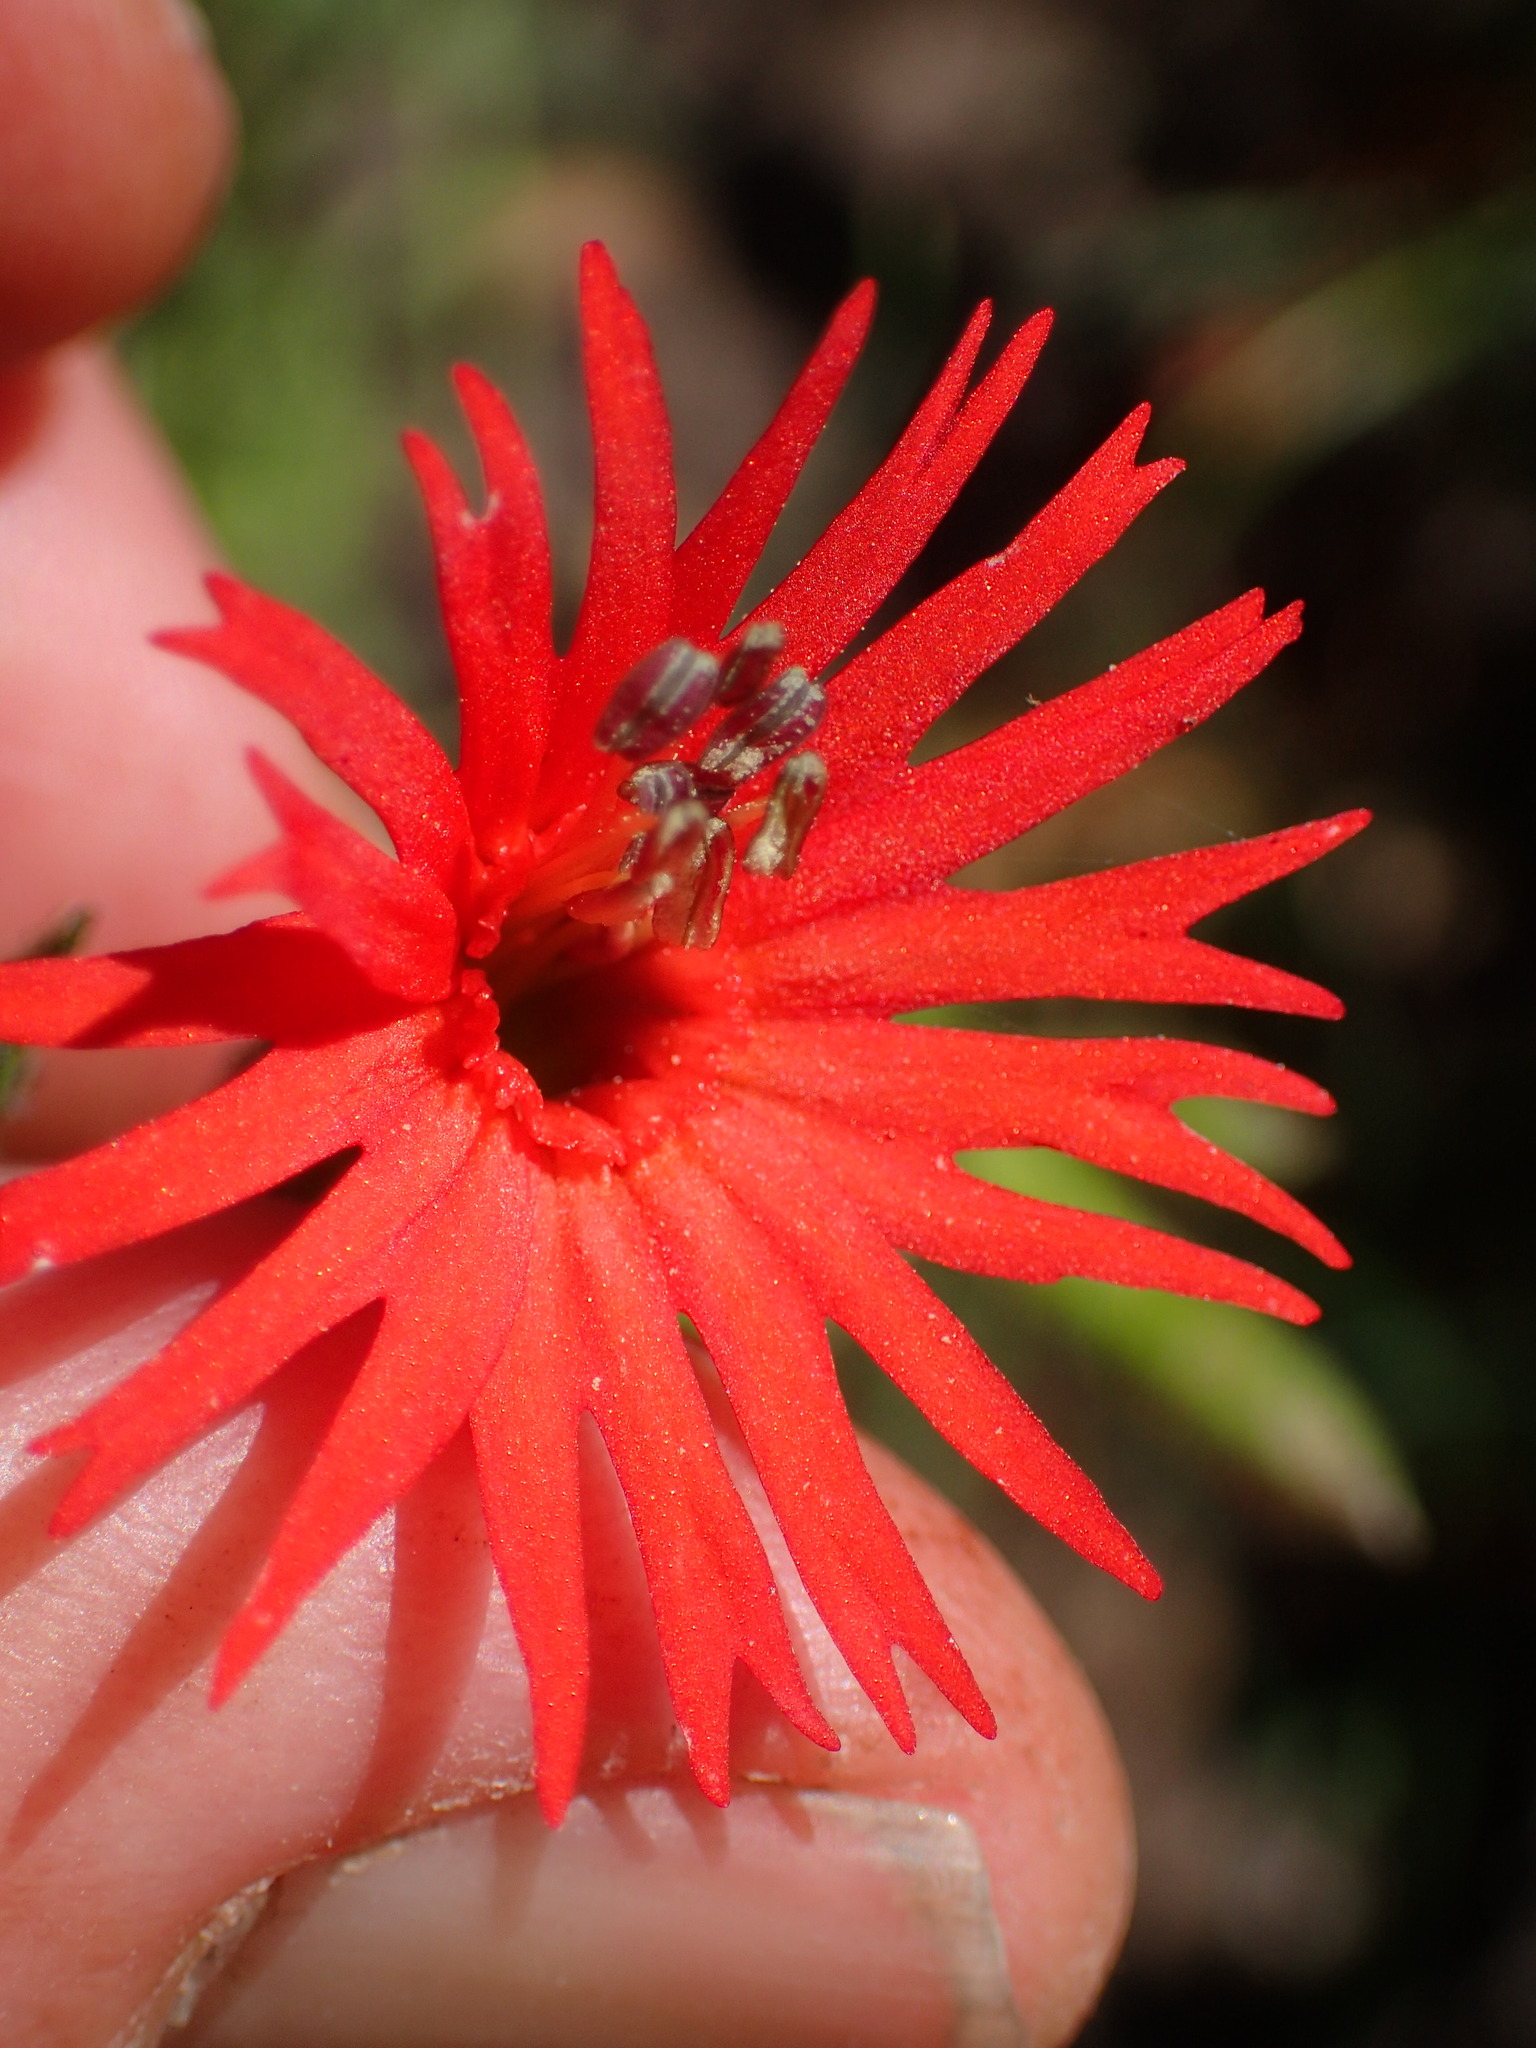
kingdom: Plantae
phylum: Tracheophyta
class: Magnoliopsida
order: Caryophyllales
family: Caryophyllaceae
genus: Silene
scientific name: Silene laciniata
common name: Indian-pink
